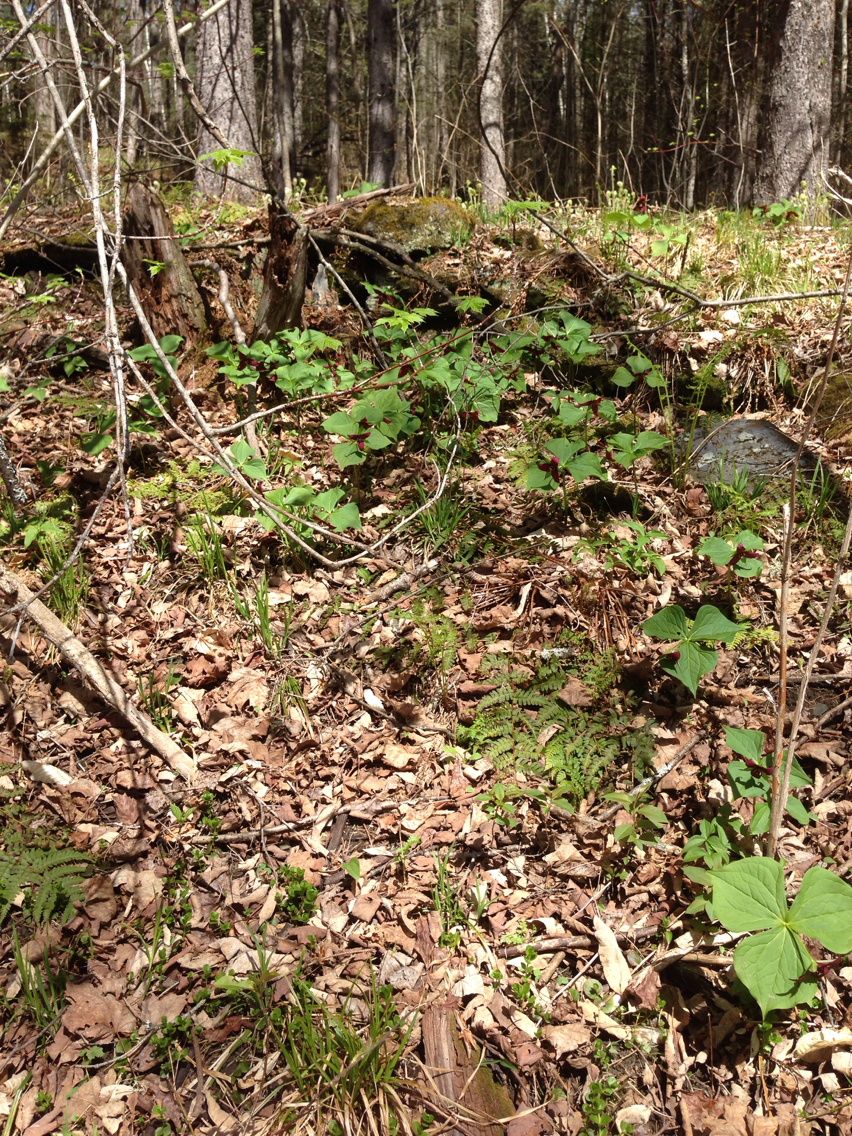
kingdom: Plantae
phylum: Tracheophyta
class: Liliopsida
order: Liliales
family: Melanthiaceae
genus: Trillium
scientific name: Trillium erectum
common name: Purple trillium
